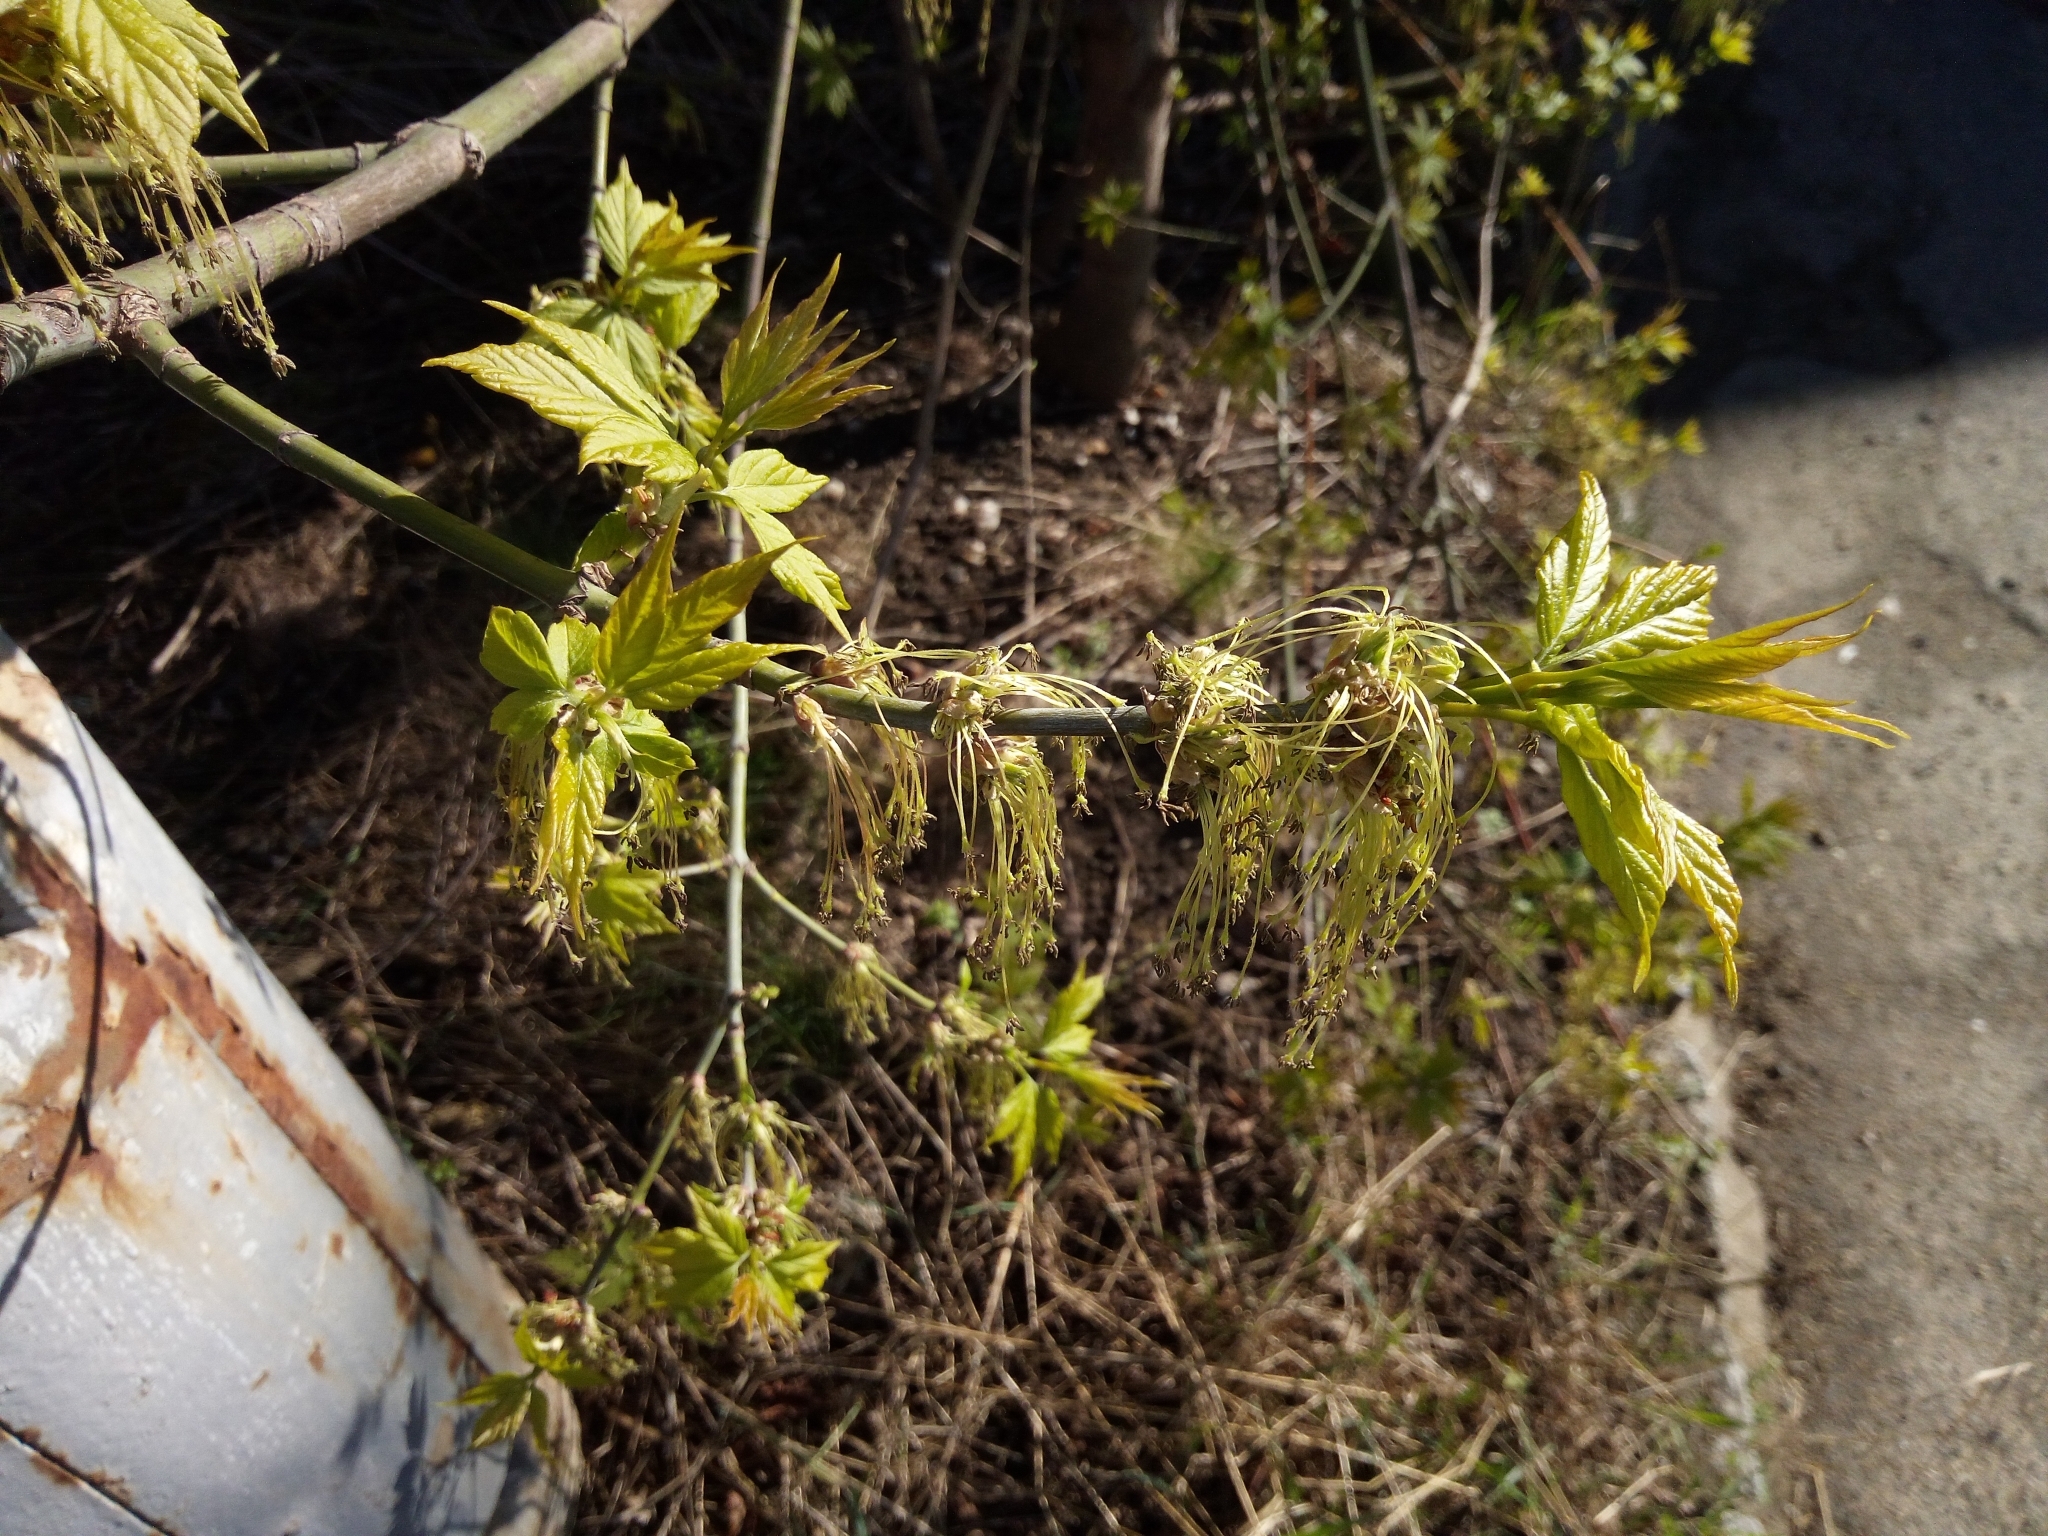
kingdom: Plantae
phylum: Tracheophyta
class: Magnoliopsida
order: Sapindales
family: Sapindaceae
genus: Acer
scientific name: Acer negundo
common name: Ashleaf maple
